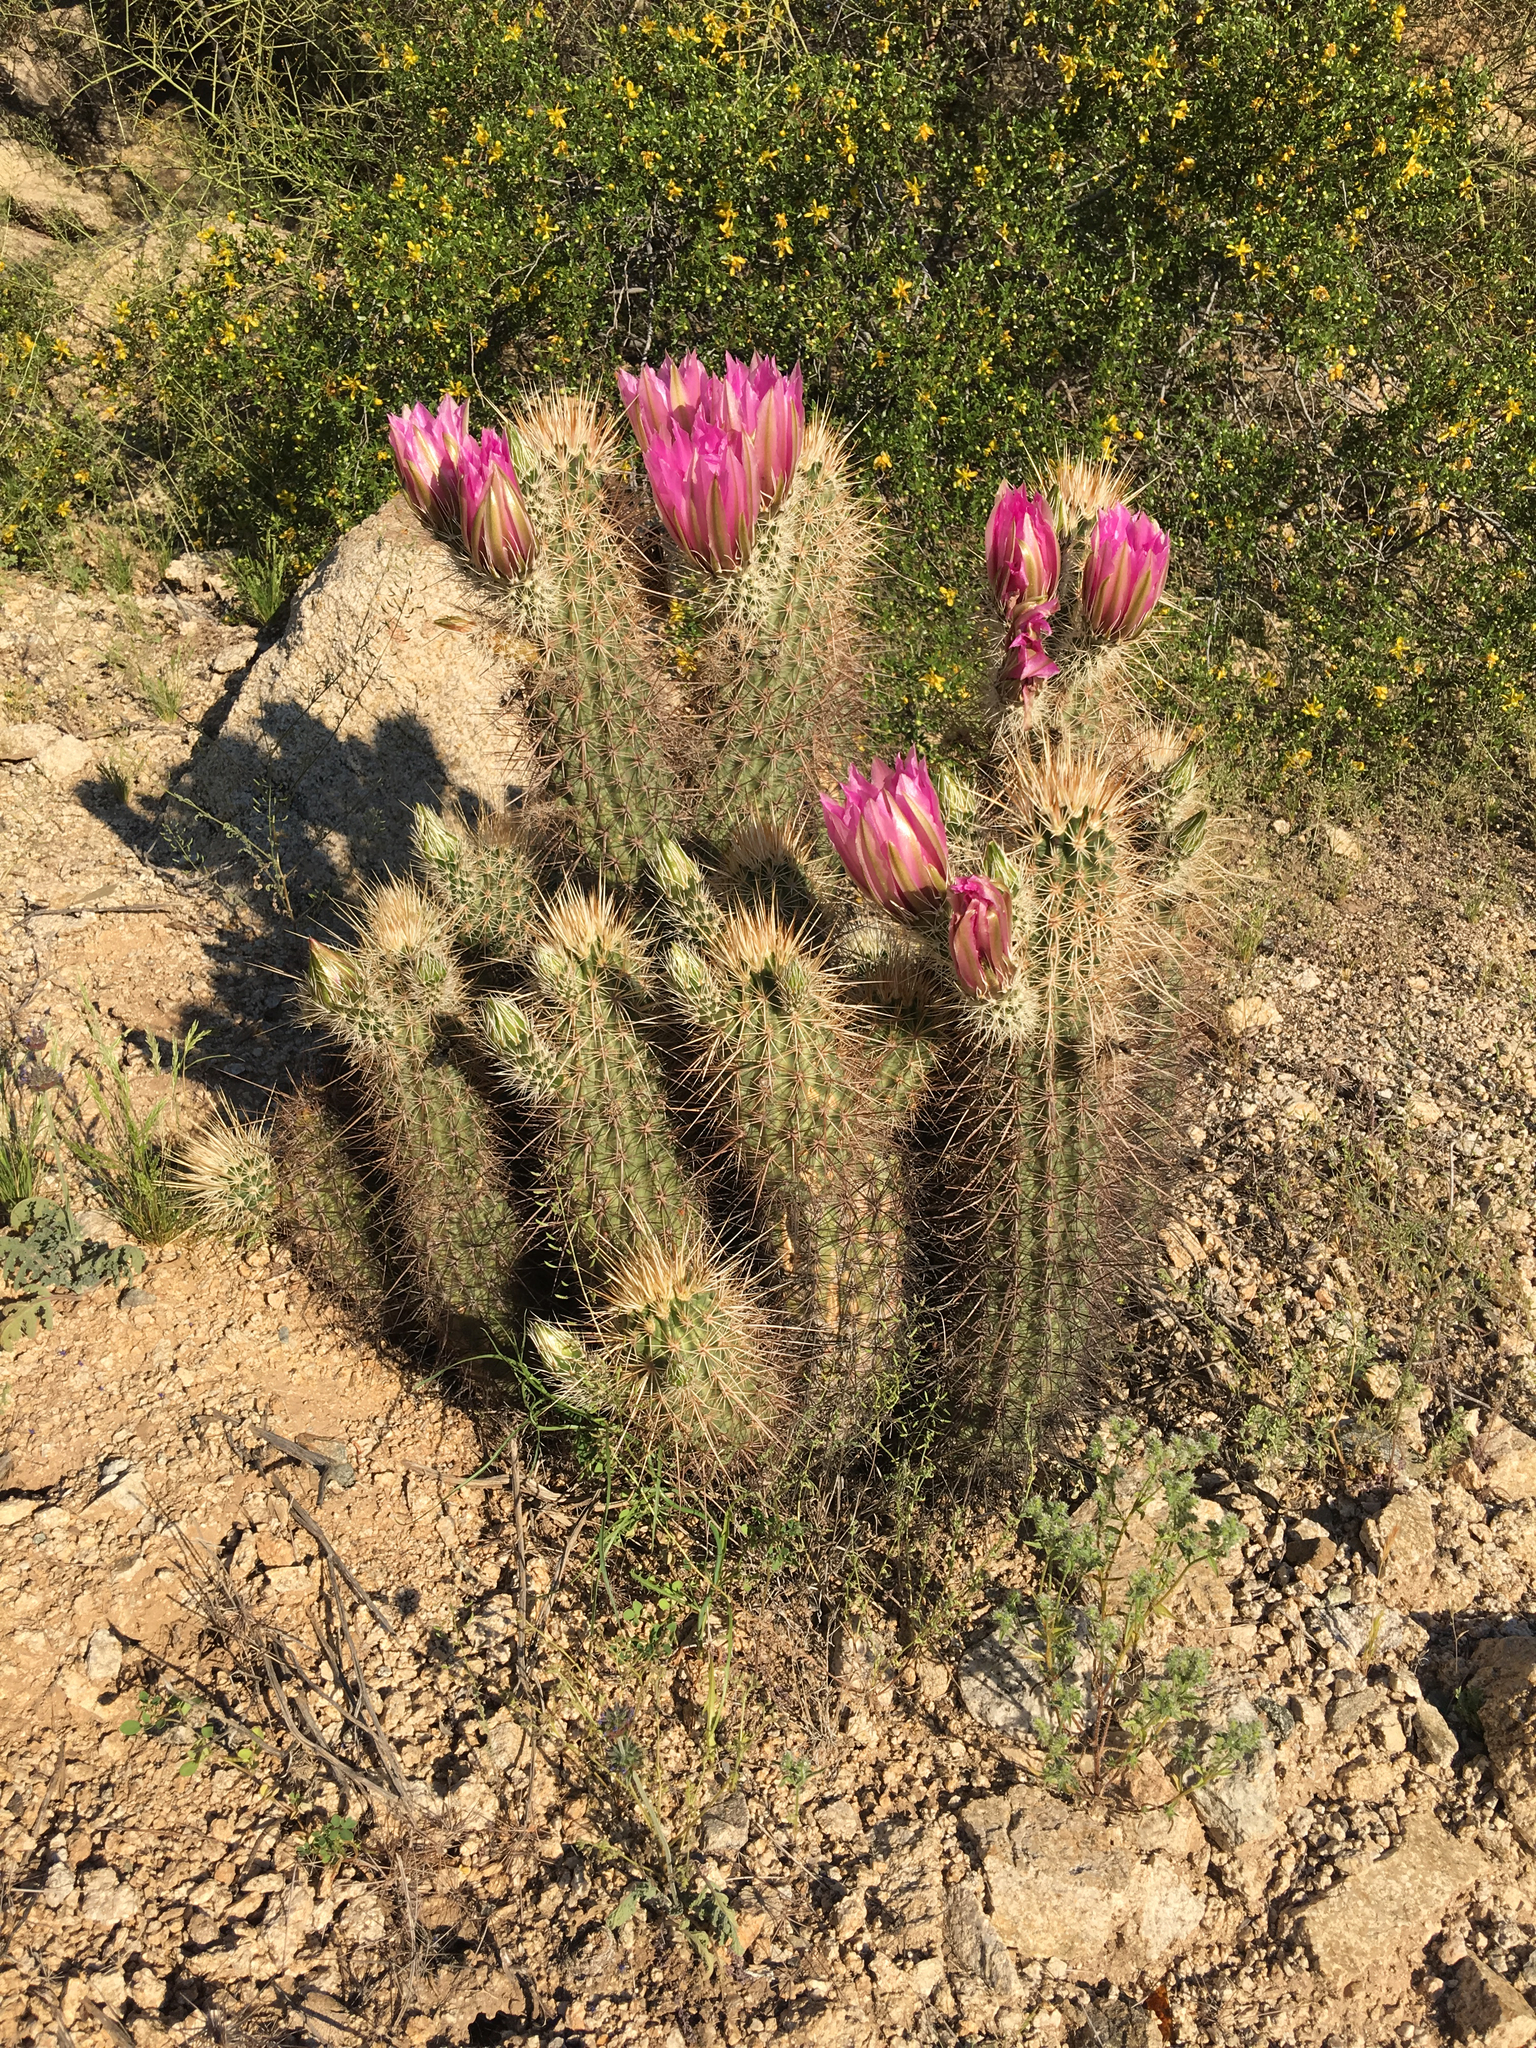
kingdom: Plantae
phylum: Tracheophyta
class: Magnoliopsida
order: Caryophyllales
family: Cactaceae
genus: Echinocereus
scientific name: Echinocereus engelmannii
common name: Engelmann's hedgehog cactus
